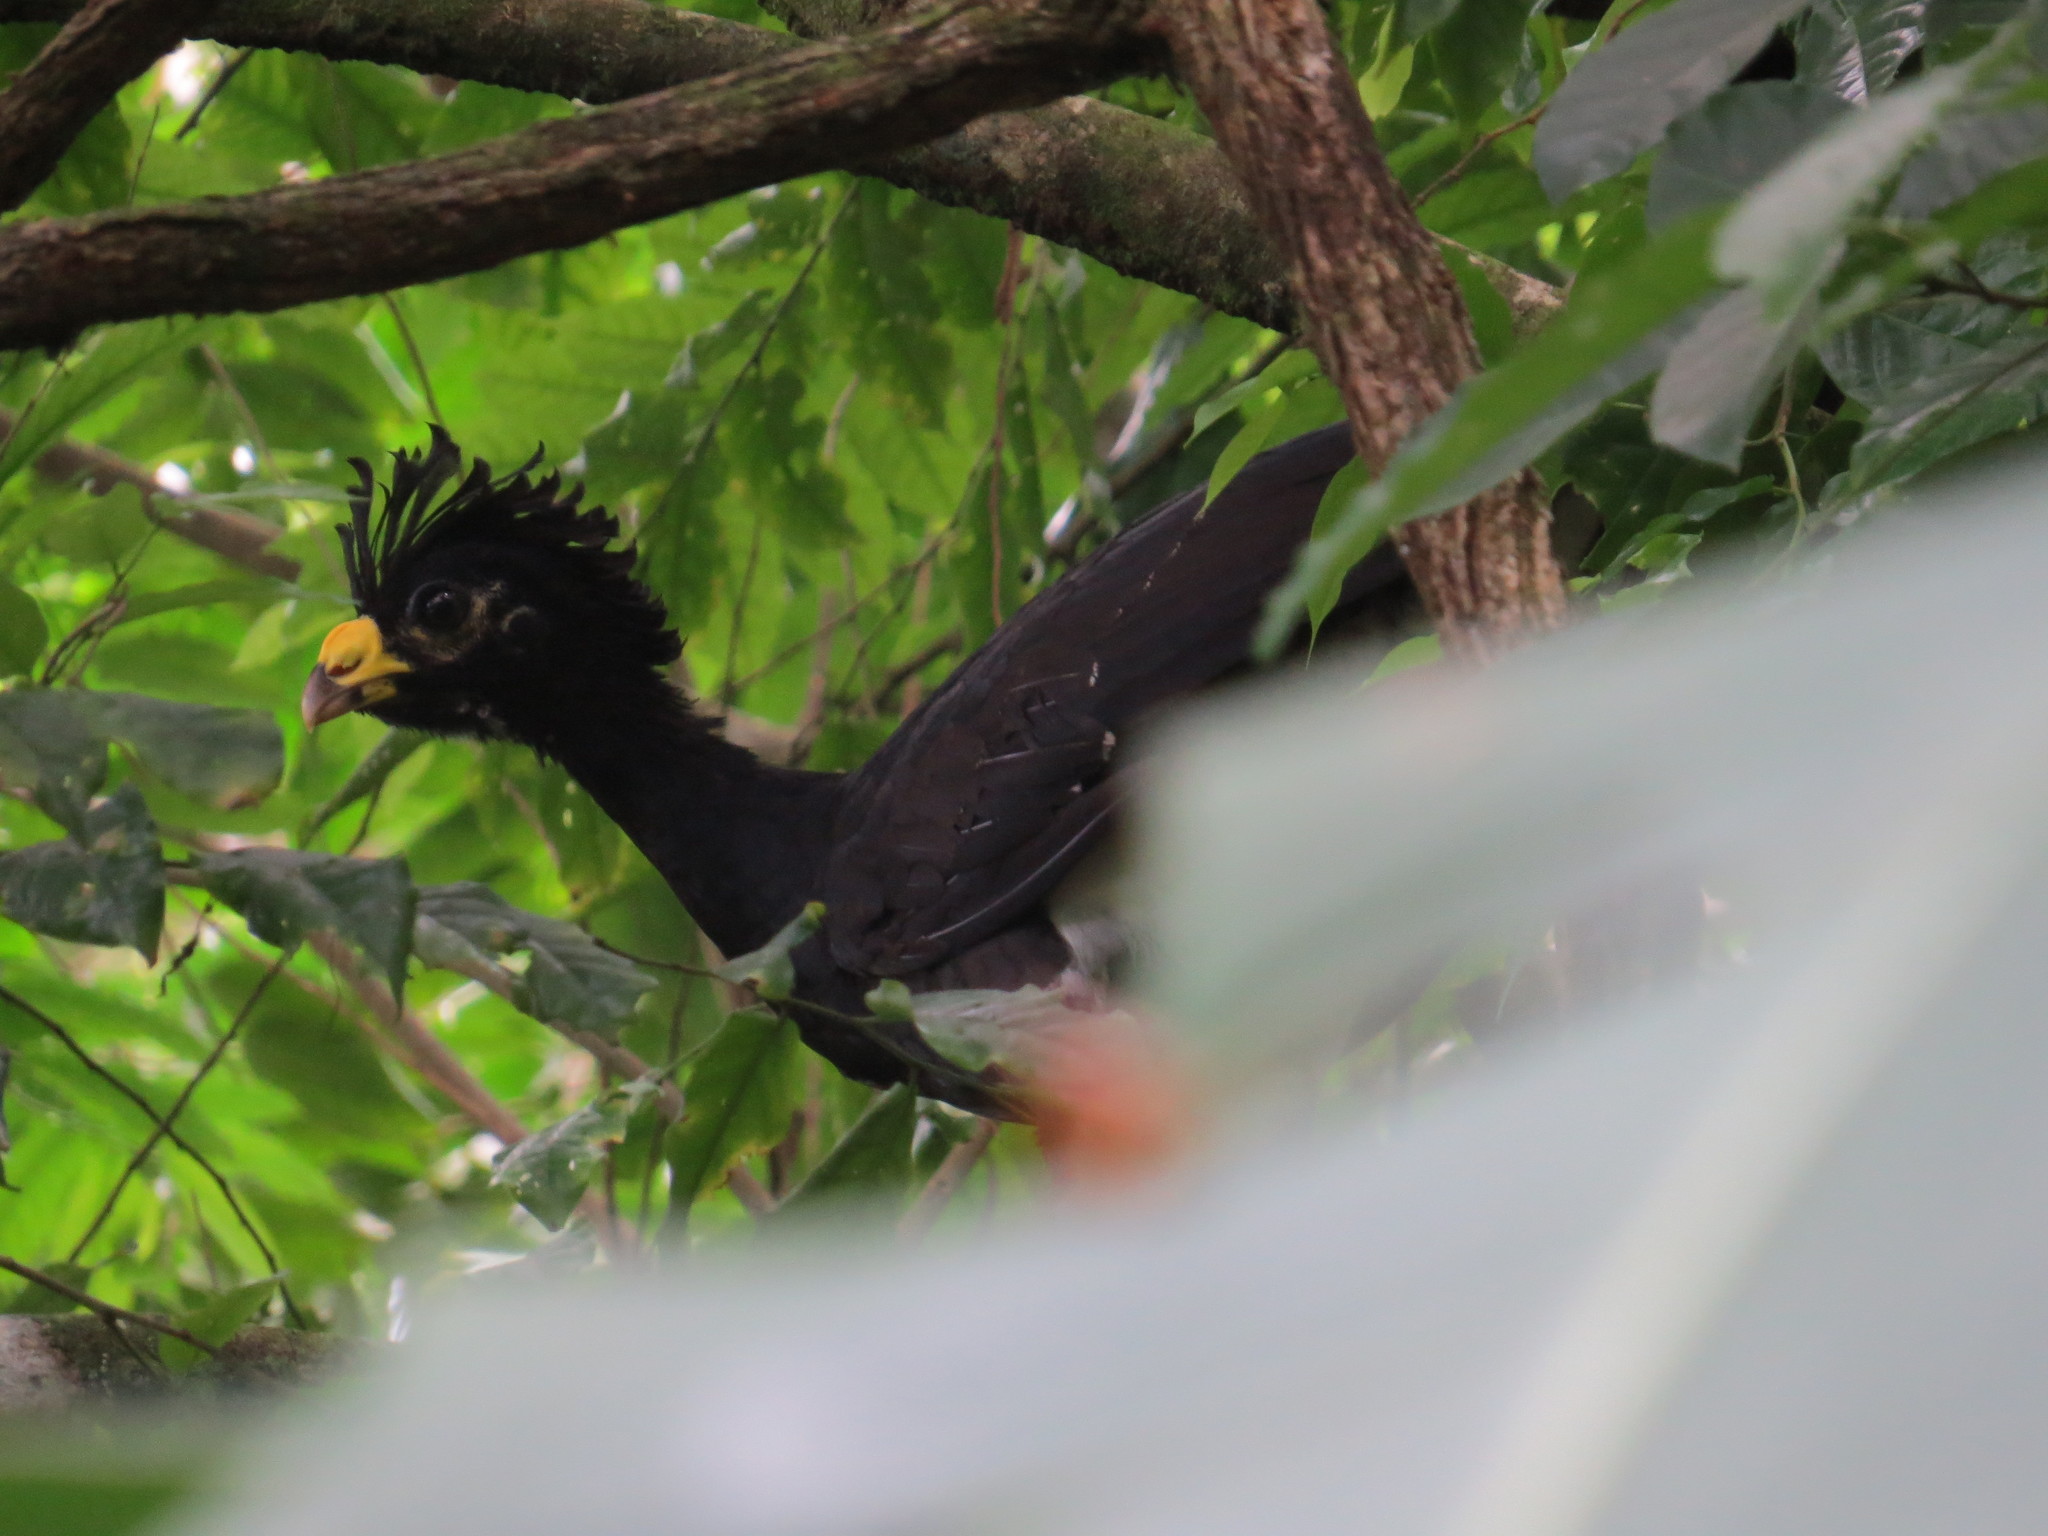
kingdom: Animalia
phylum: Chordata
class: Aves
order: Galliformes
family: Cracidae
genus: Crax
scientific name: Crax rubra
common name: Great curassow
